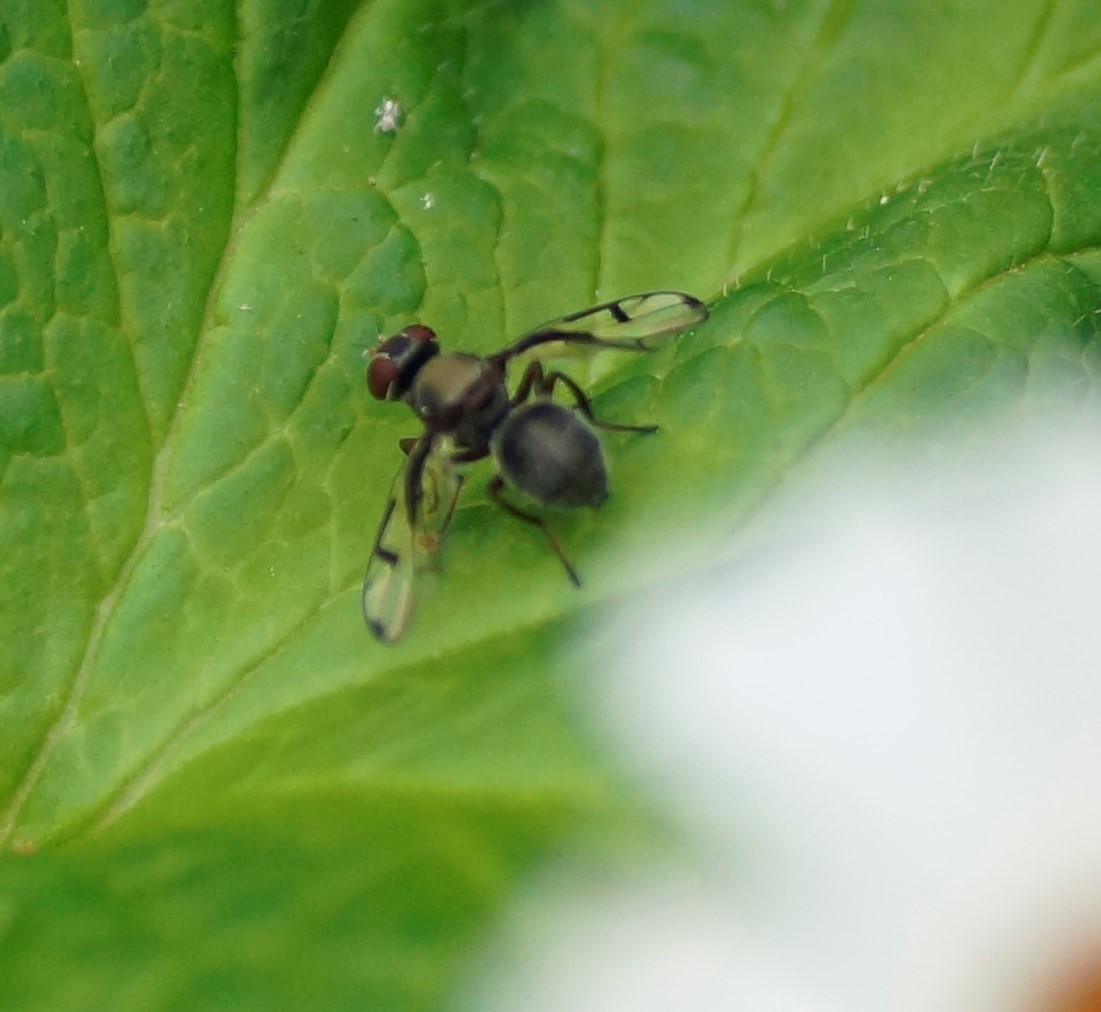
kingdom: Animalia
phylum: Arthropoda
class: Insecta
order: Diptera
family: Platystomatidae
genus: Pogonortalis
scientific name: Pogonortalis doclea
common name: Boatman fly
